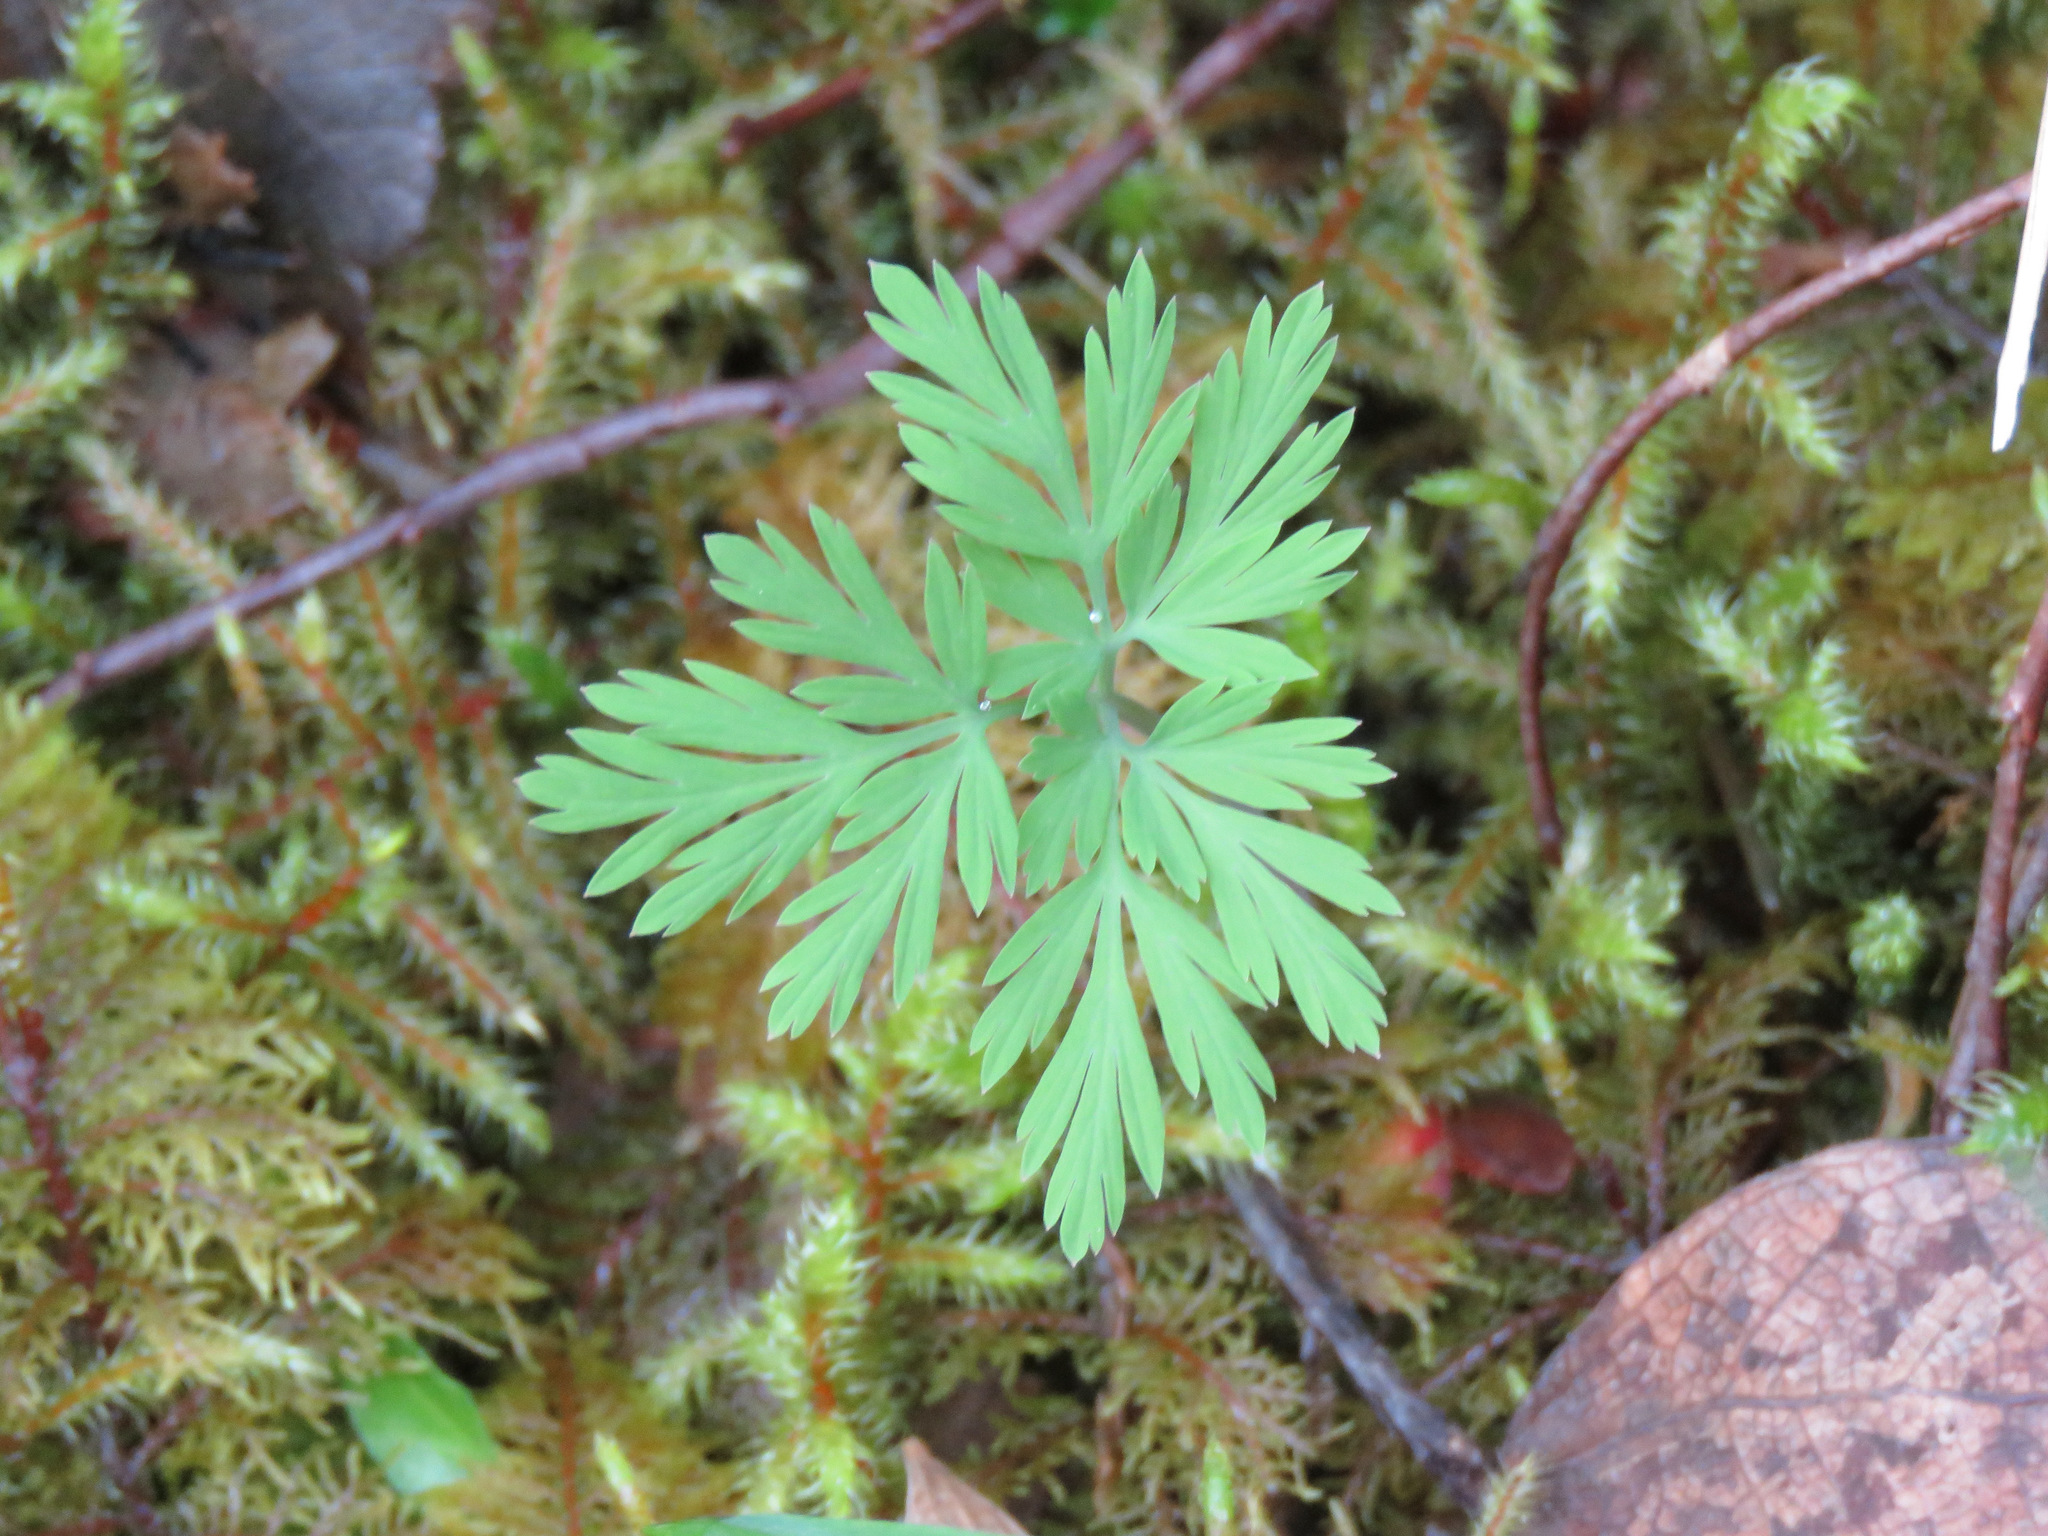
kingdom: Plantae
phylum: Tracheophyta
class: Magnoliopsida
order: Ranunculales
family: Papaveraceae
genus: Dicentra
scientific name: Dicentra formosa
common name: Bleeding-heart
